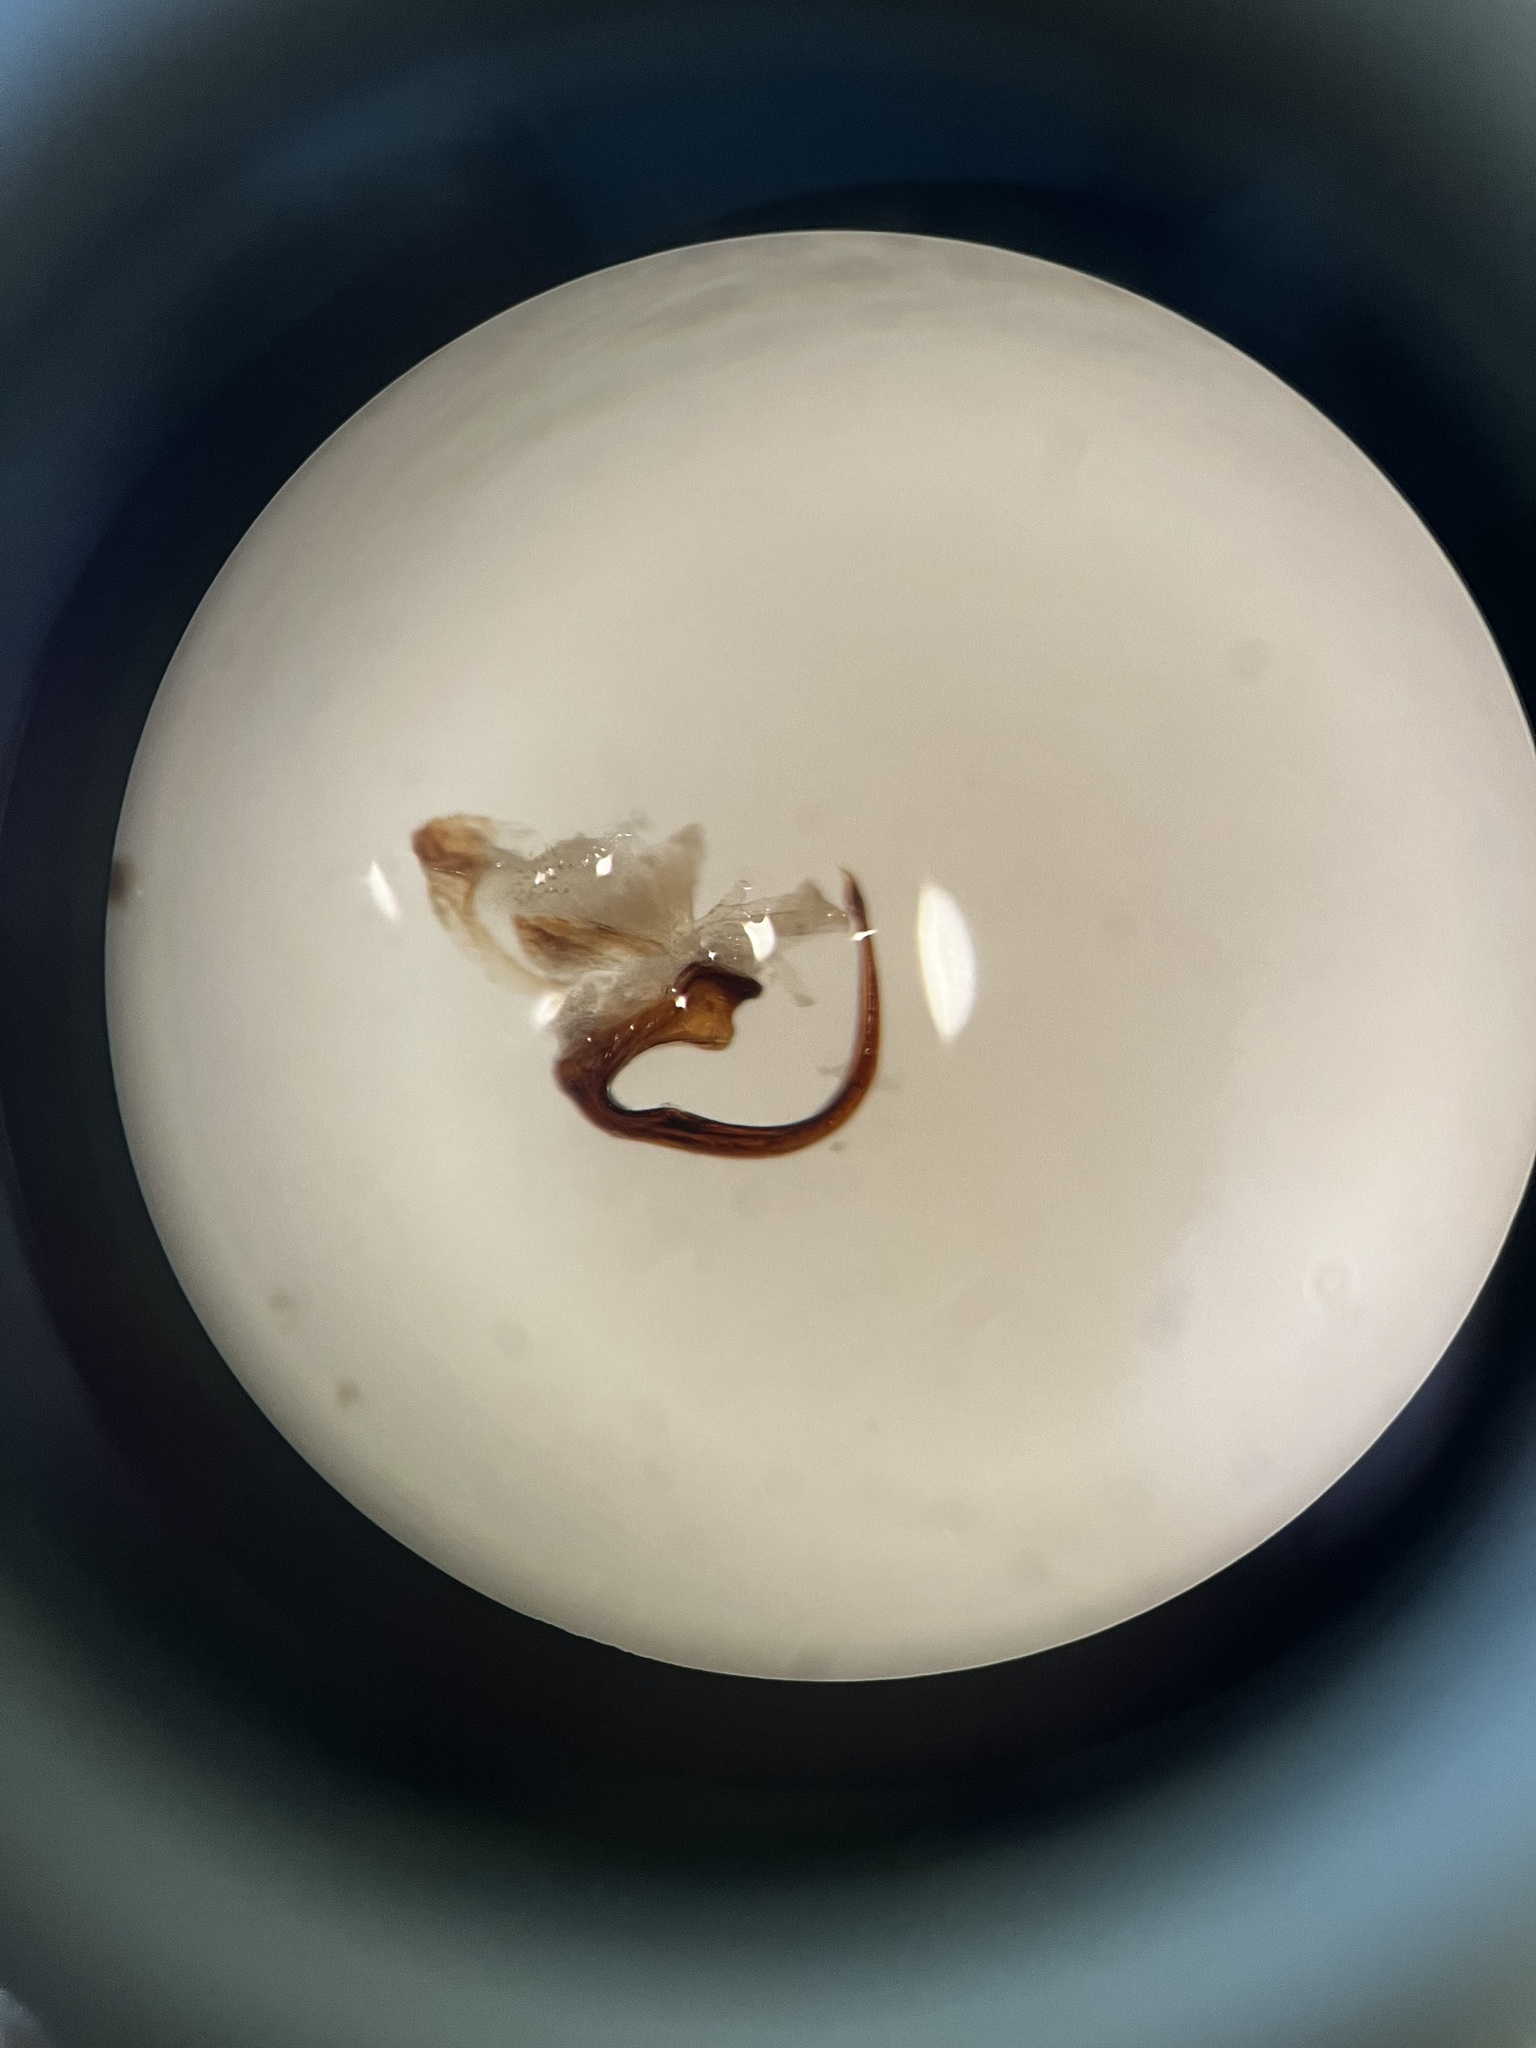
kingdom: Animalia
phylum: Arthropoda
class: Insecta
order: Hemiptera
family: Cicadellidae
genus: Streptanus
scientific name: Streptanus aemulans
